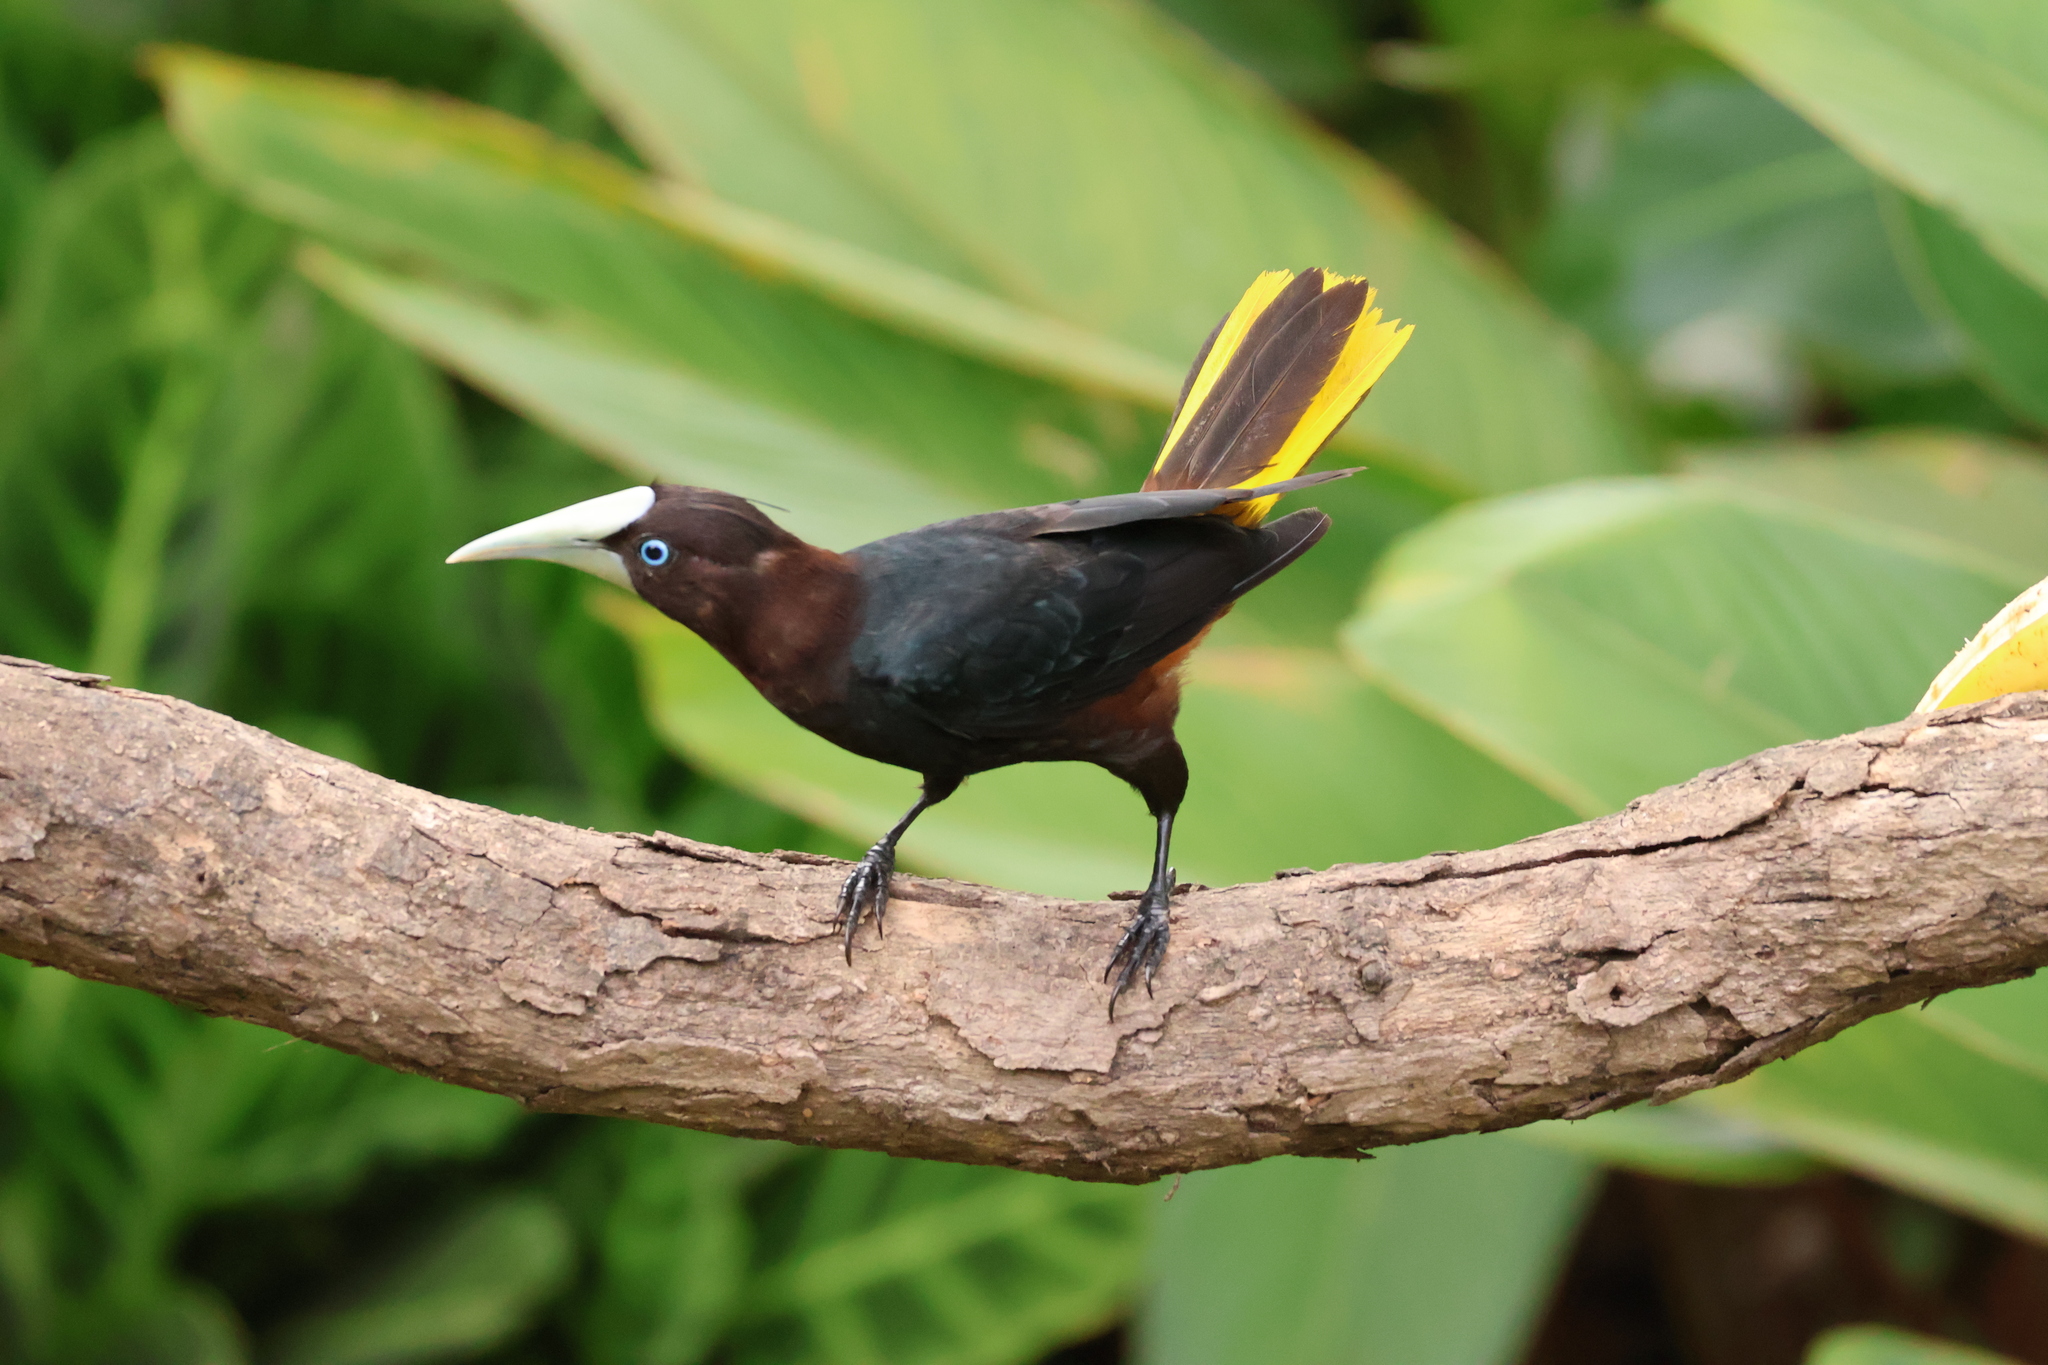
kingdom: Animalia
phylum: Chordata
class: Aves
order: Passeriformes
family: Icteridae
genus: Psarocolius
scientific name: Psarocolius wagleri
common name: Chestnut-headed oropendola
